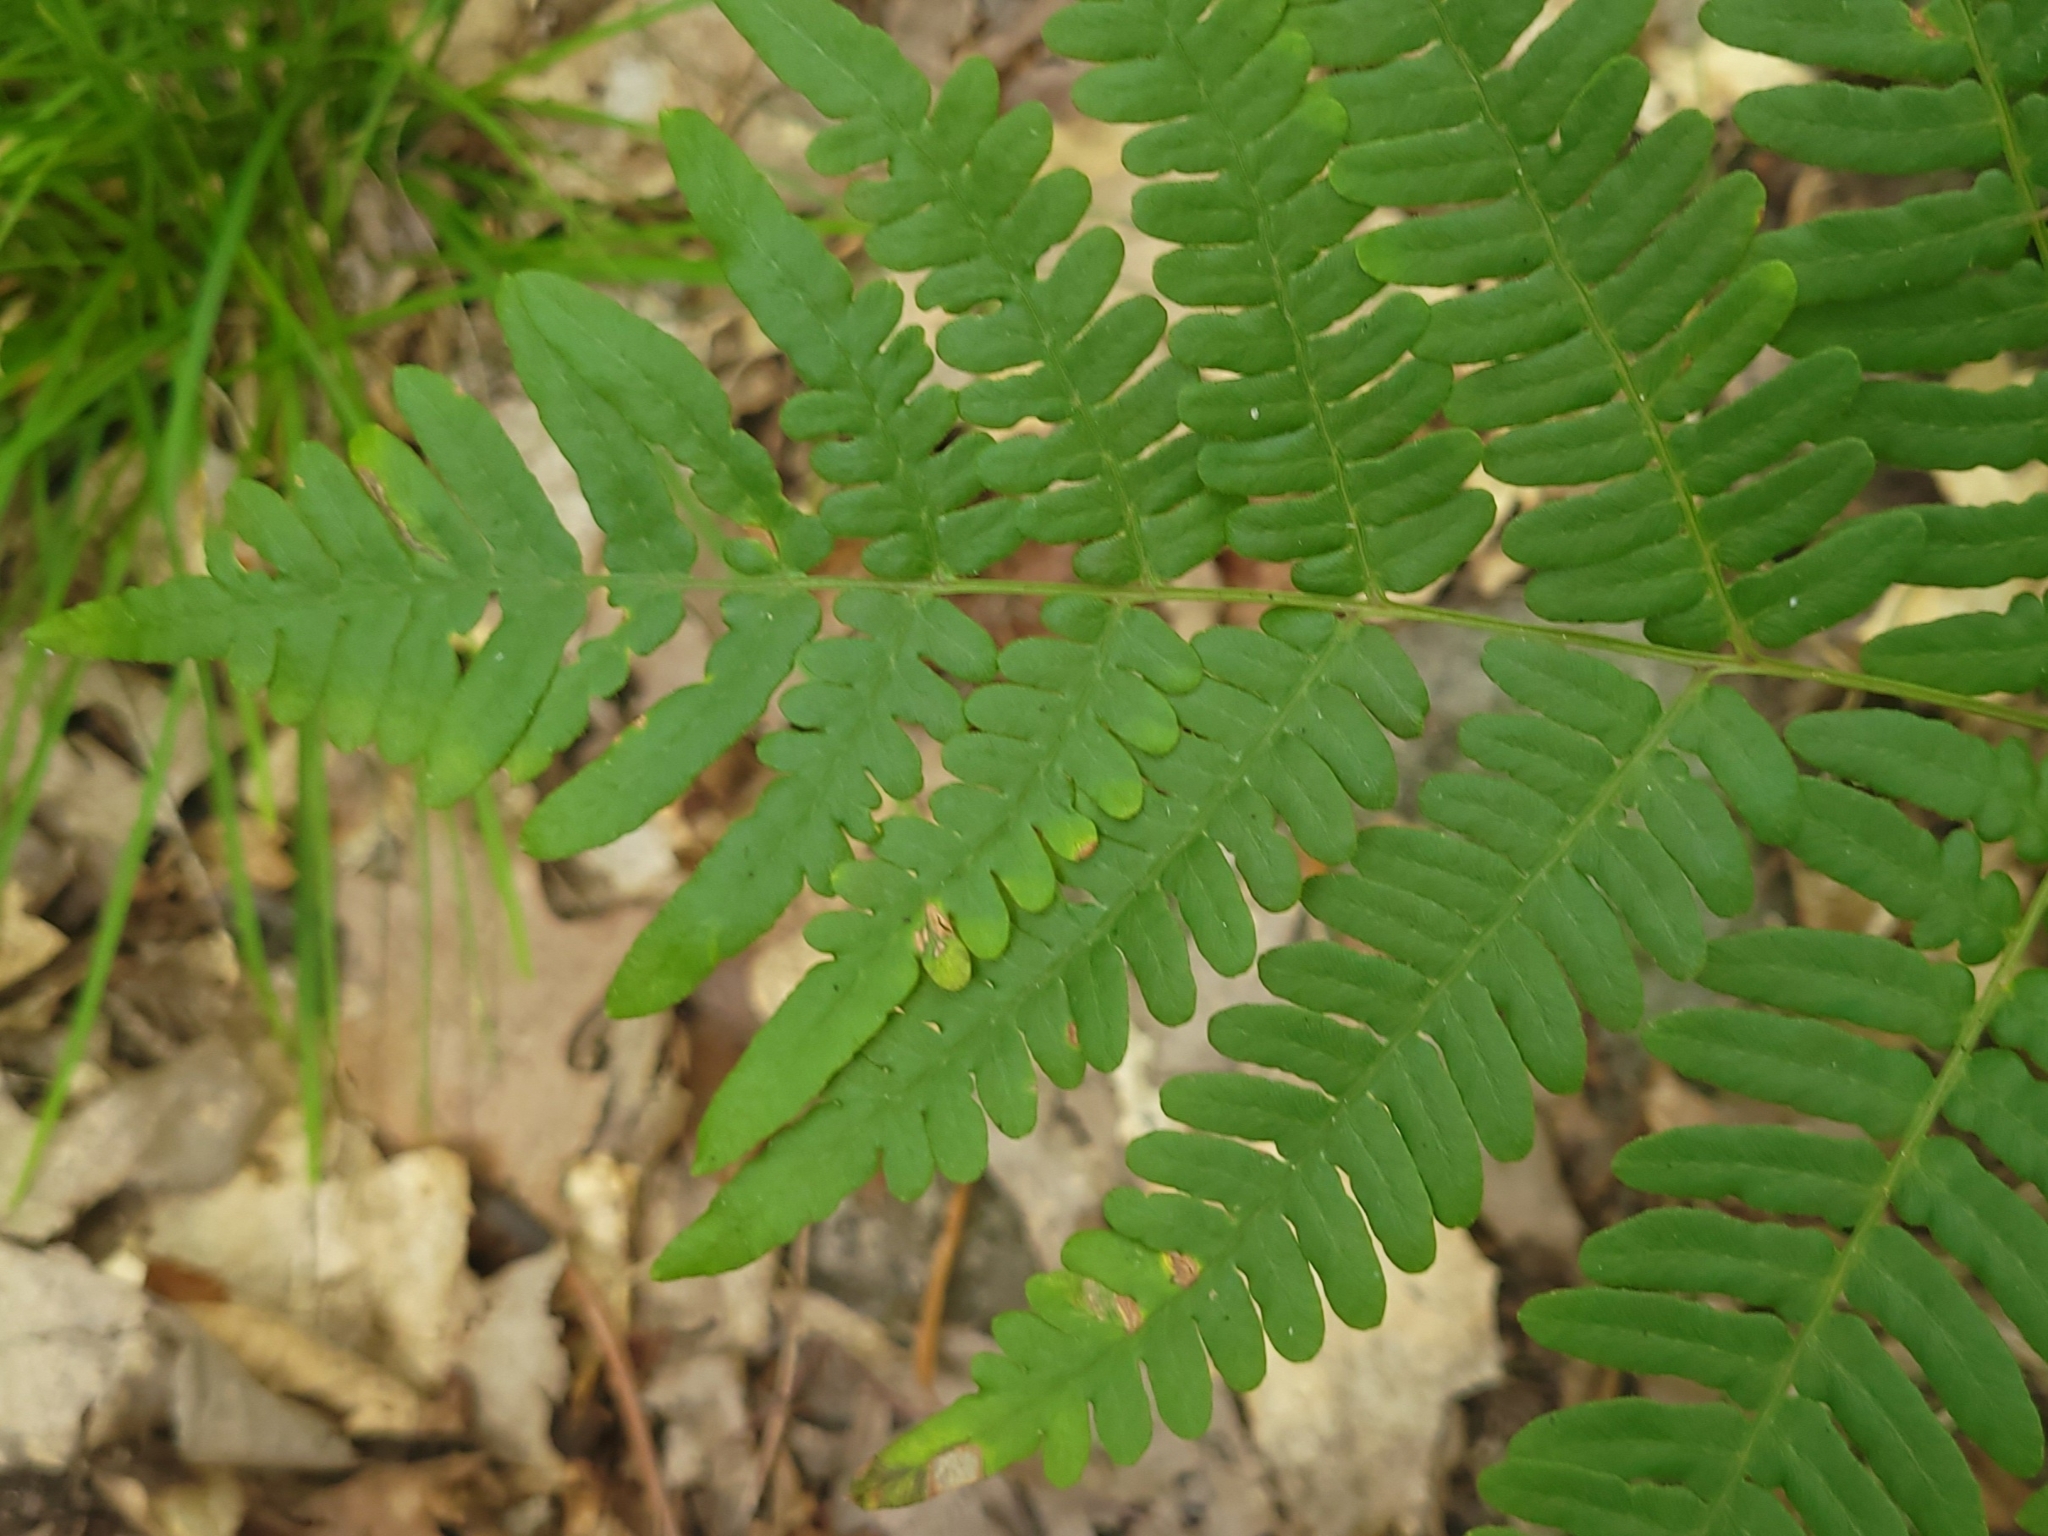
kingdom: Plantae
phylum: Tracheophyta
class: Polypodiopsida
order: Polypodiales
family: Dennstaedtiaceae
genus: Pteridium
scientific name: Pteridium aquilinum
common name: Bracken
